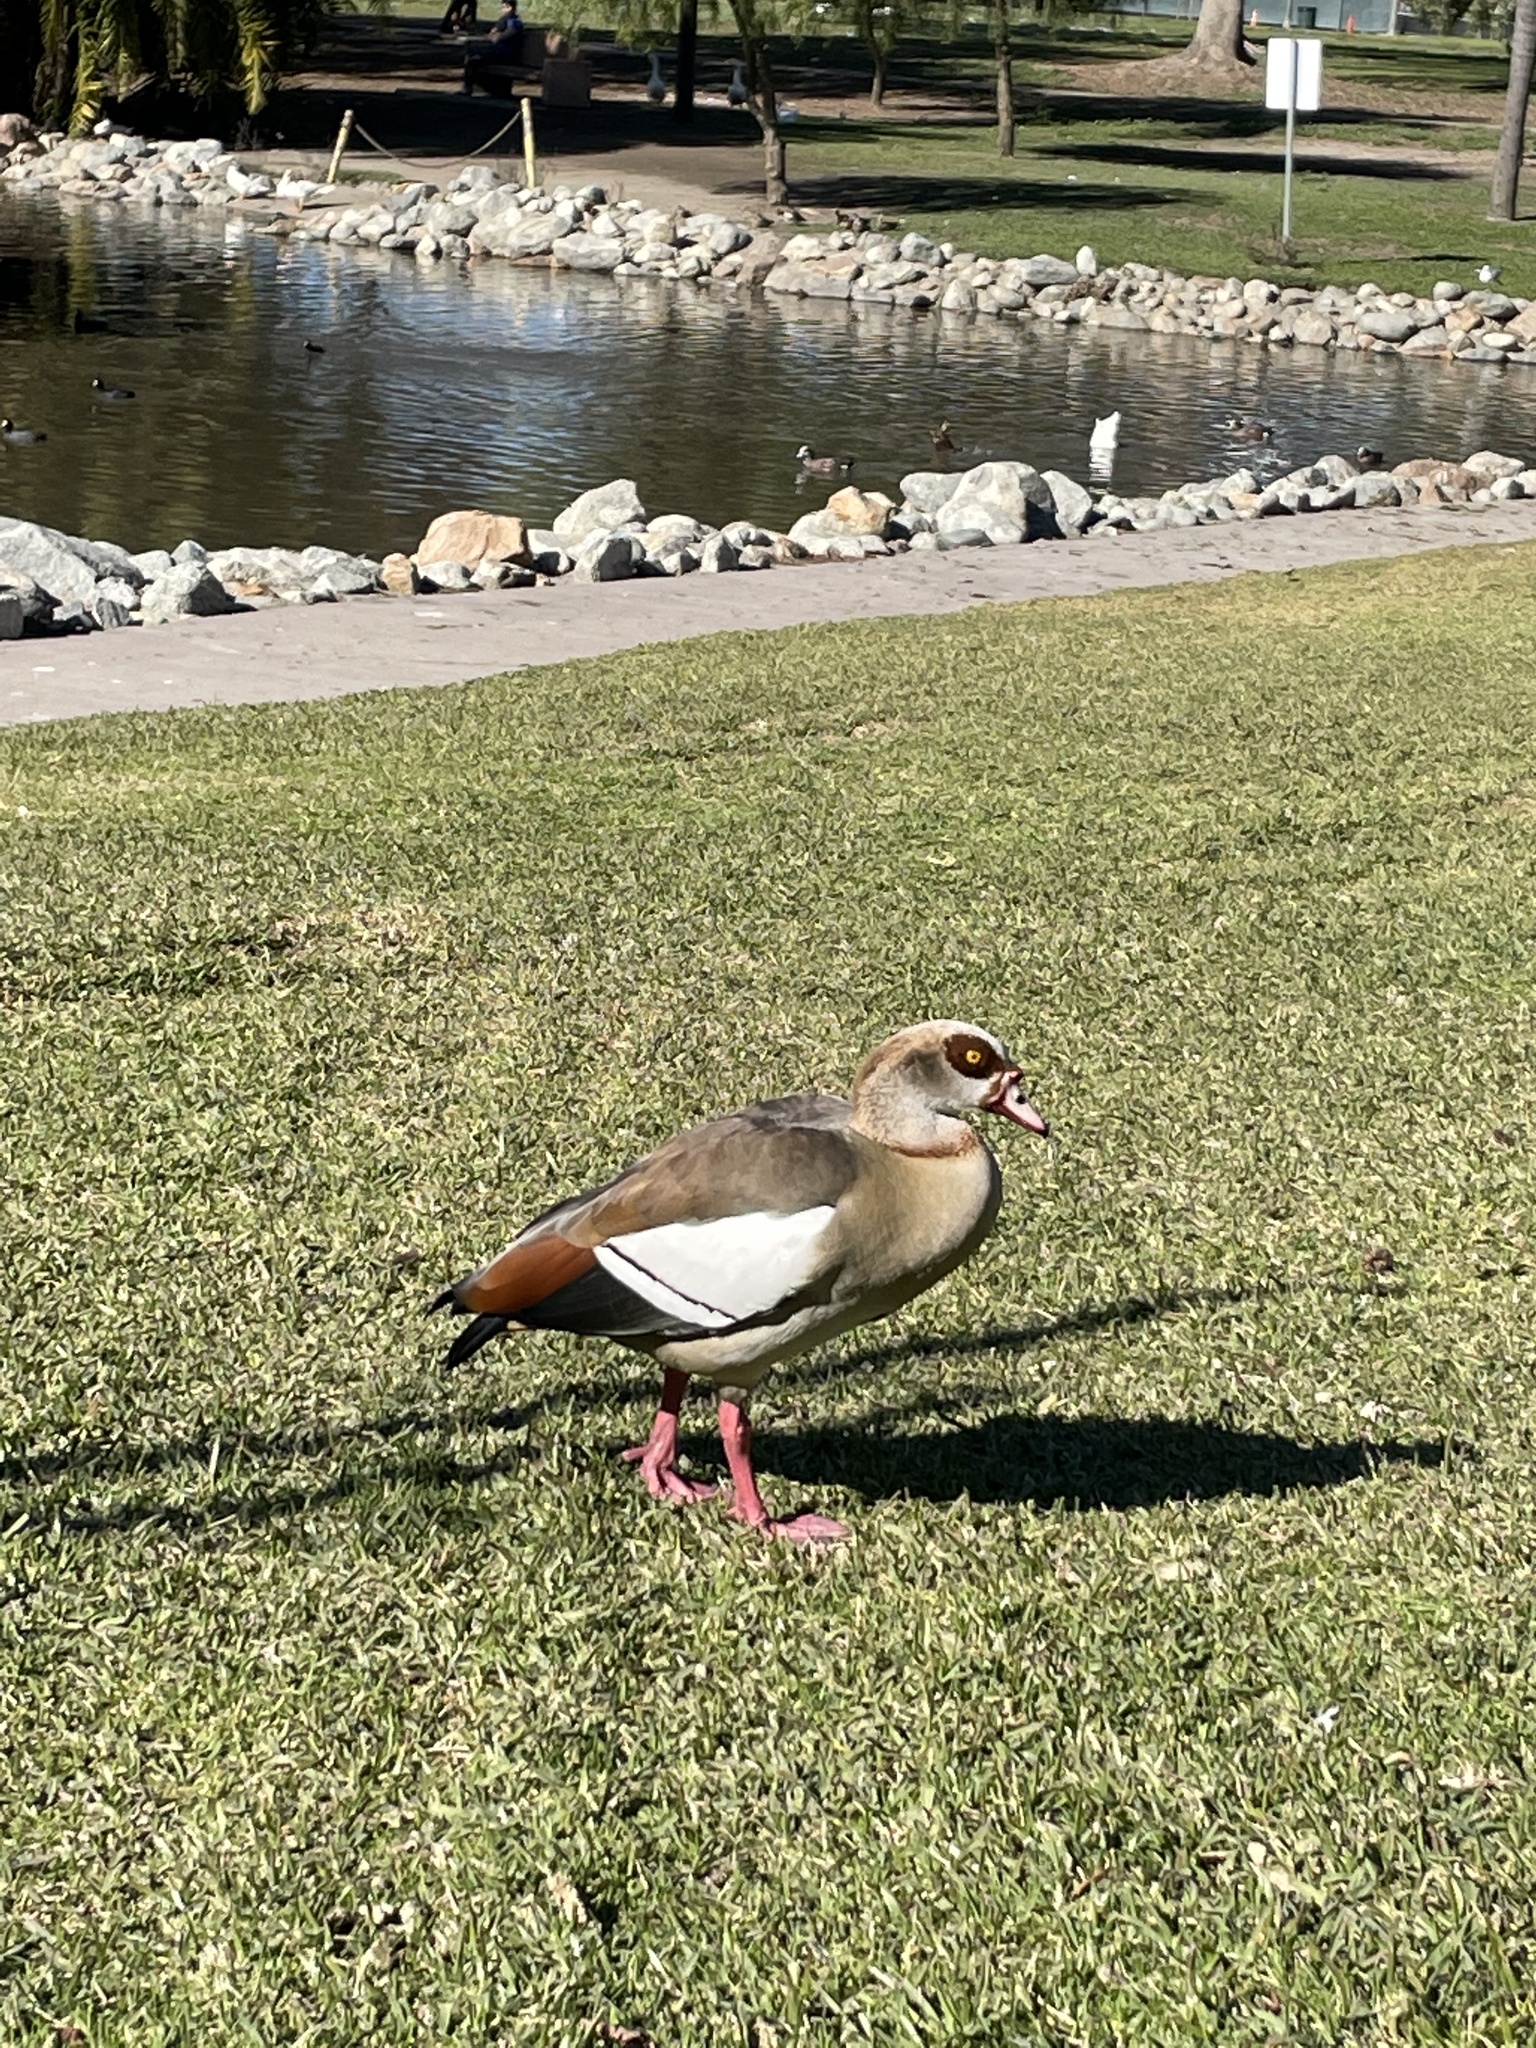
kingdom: Animalia
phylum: Chordata
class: Aves
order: Anseriformes
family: Anatidae
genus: Alopochen
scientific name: Alopochen aegyptiaca
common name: Egyptian goose
